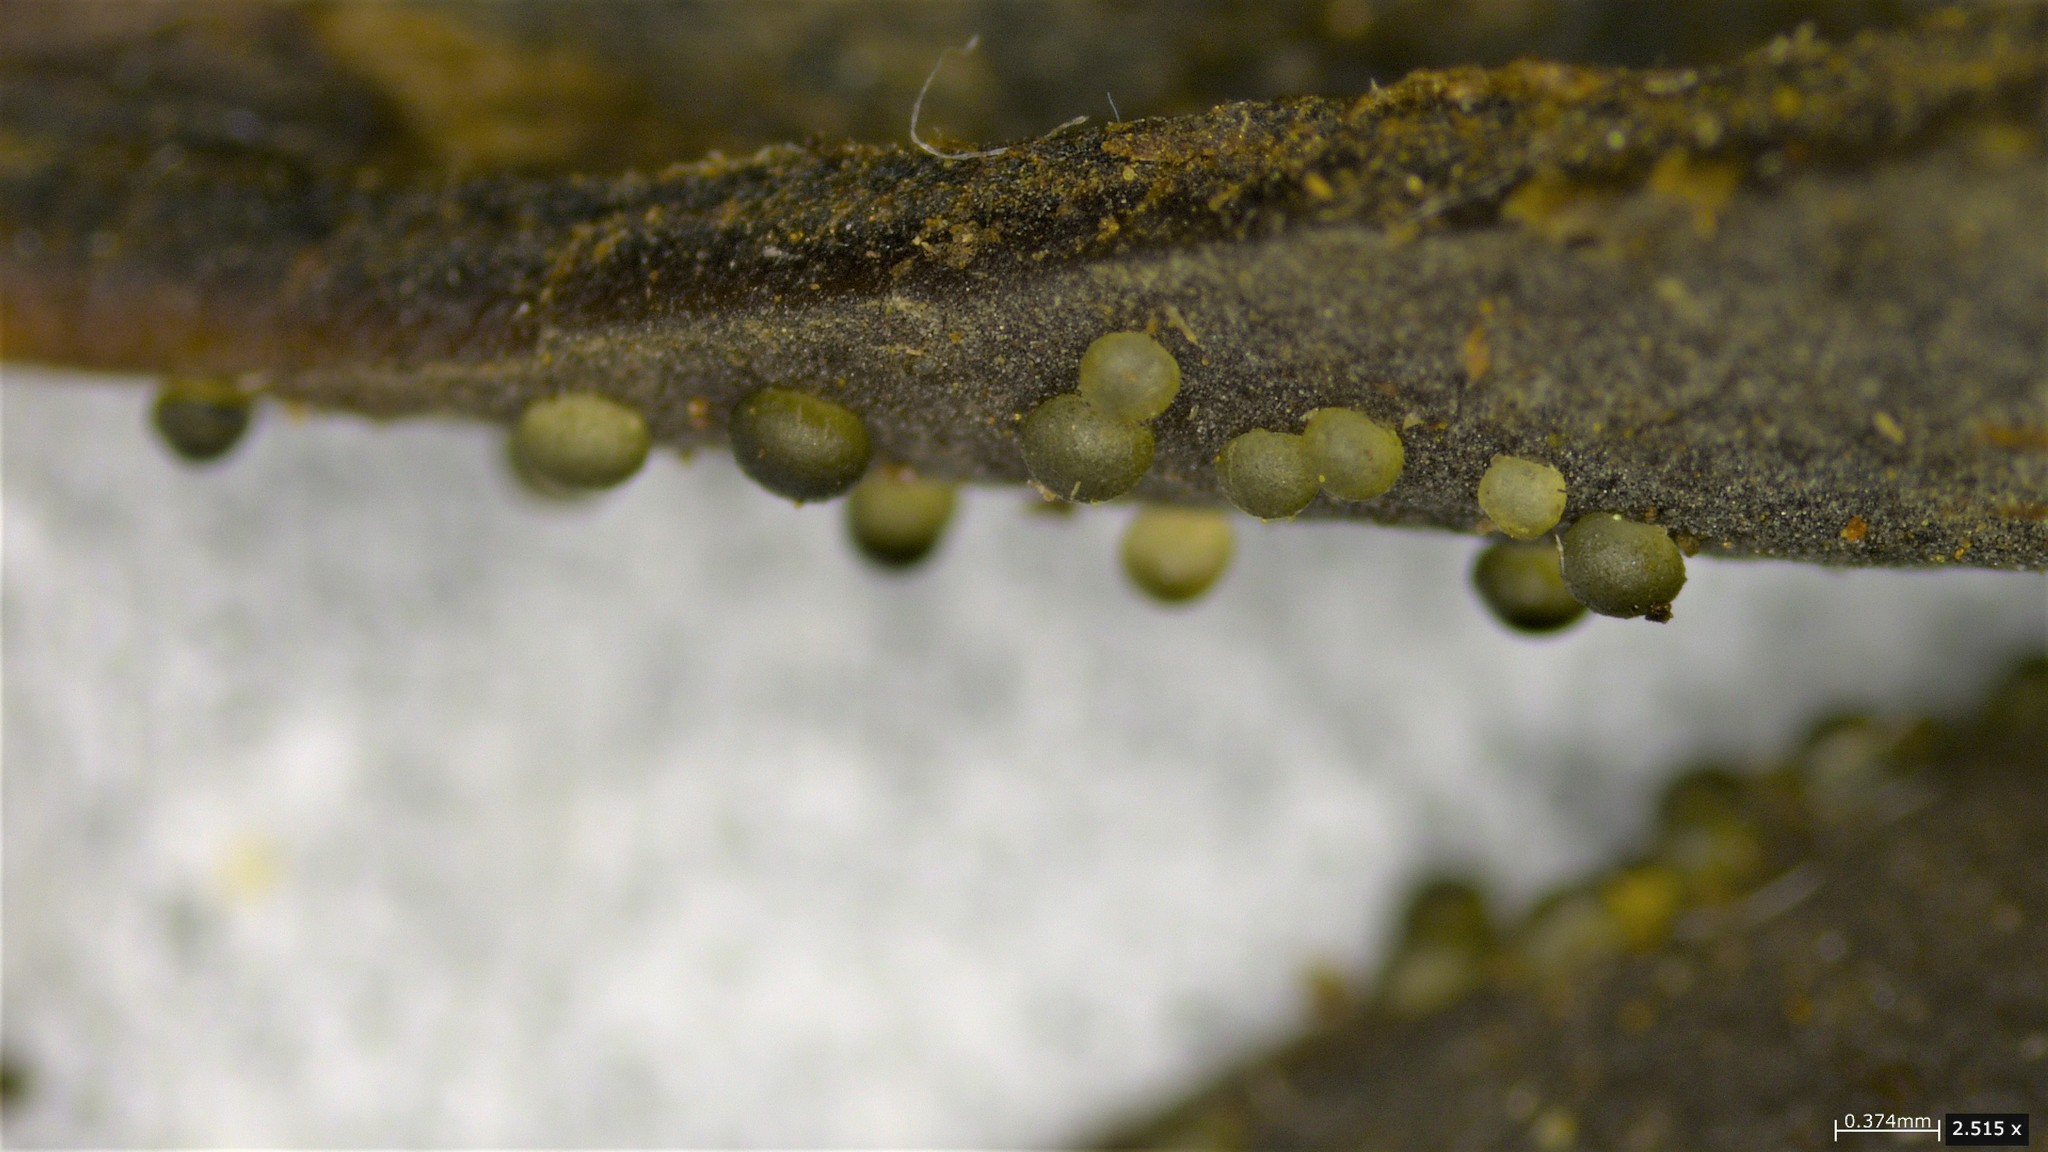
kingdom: Fungi
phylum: Ascomycota
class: Leotiomycetes
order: Phacidiales
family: Helicogoniaceae
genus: Gelatinipulvinella
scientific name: Gelatinipulvinella astraeicola
